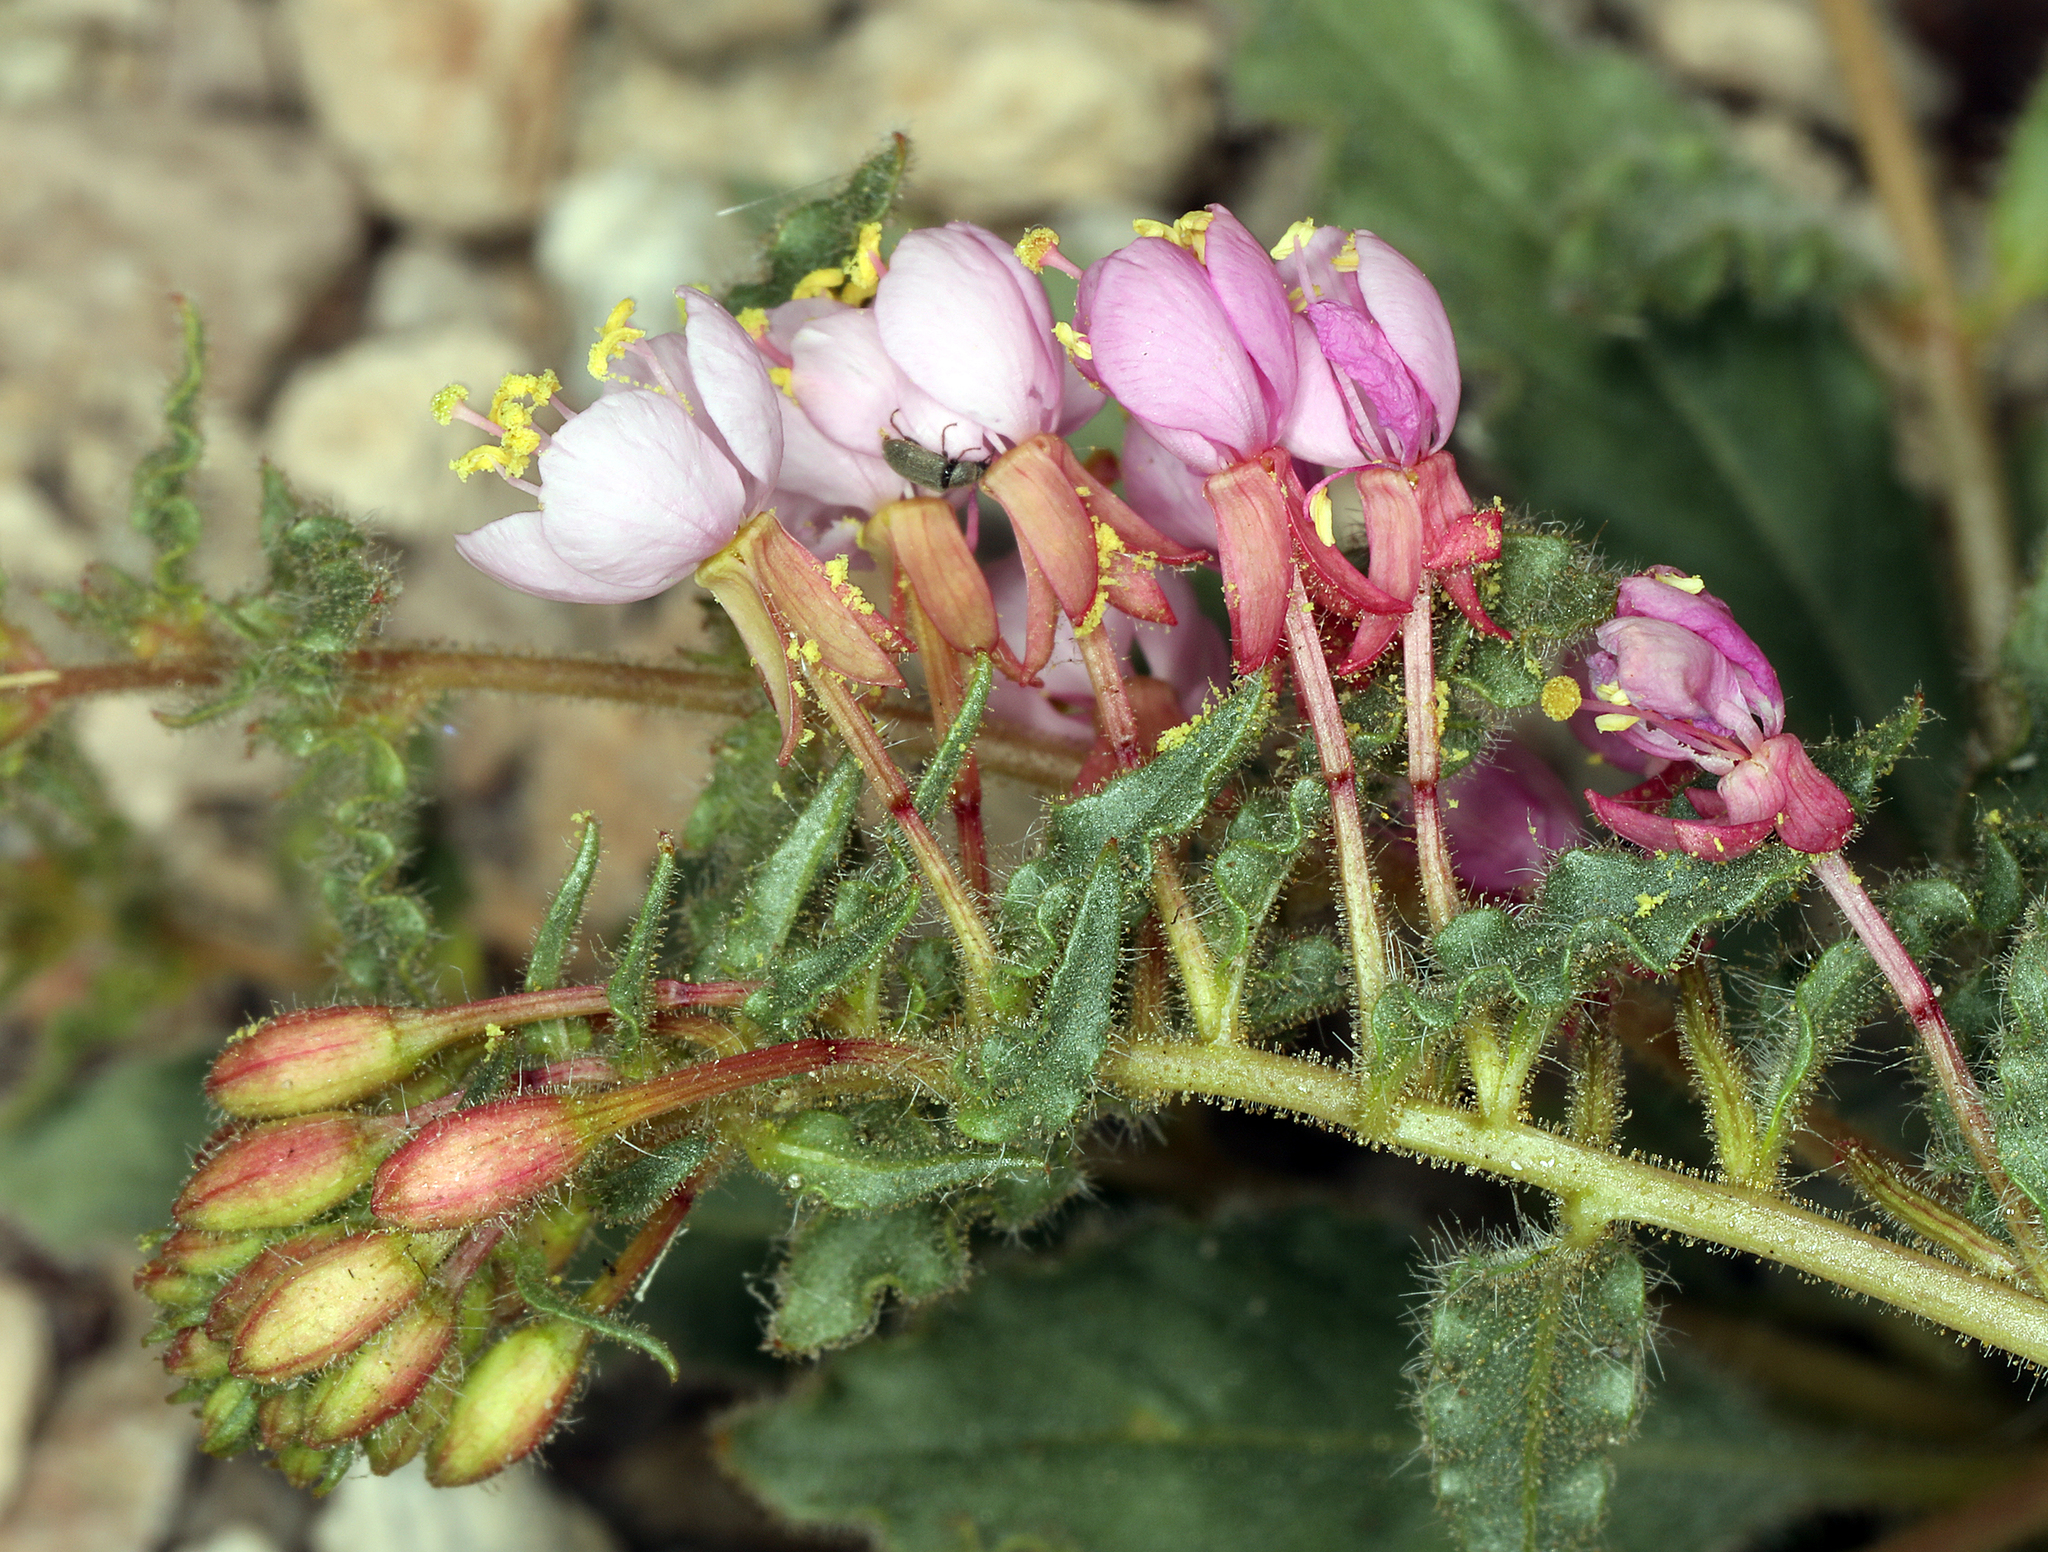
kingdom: Plantae
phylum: Tracheophyta
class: Magnoliopsida
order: Myrtales
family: Onagraceae
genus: Eremothera
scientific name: Eremothera boothii
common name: Booth's evening primrose
